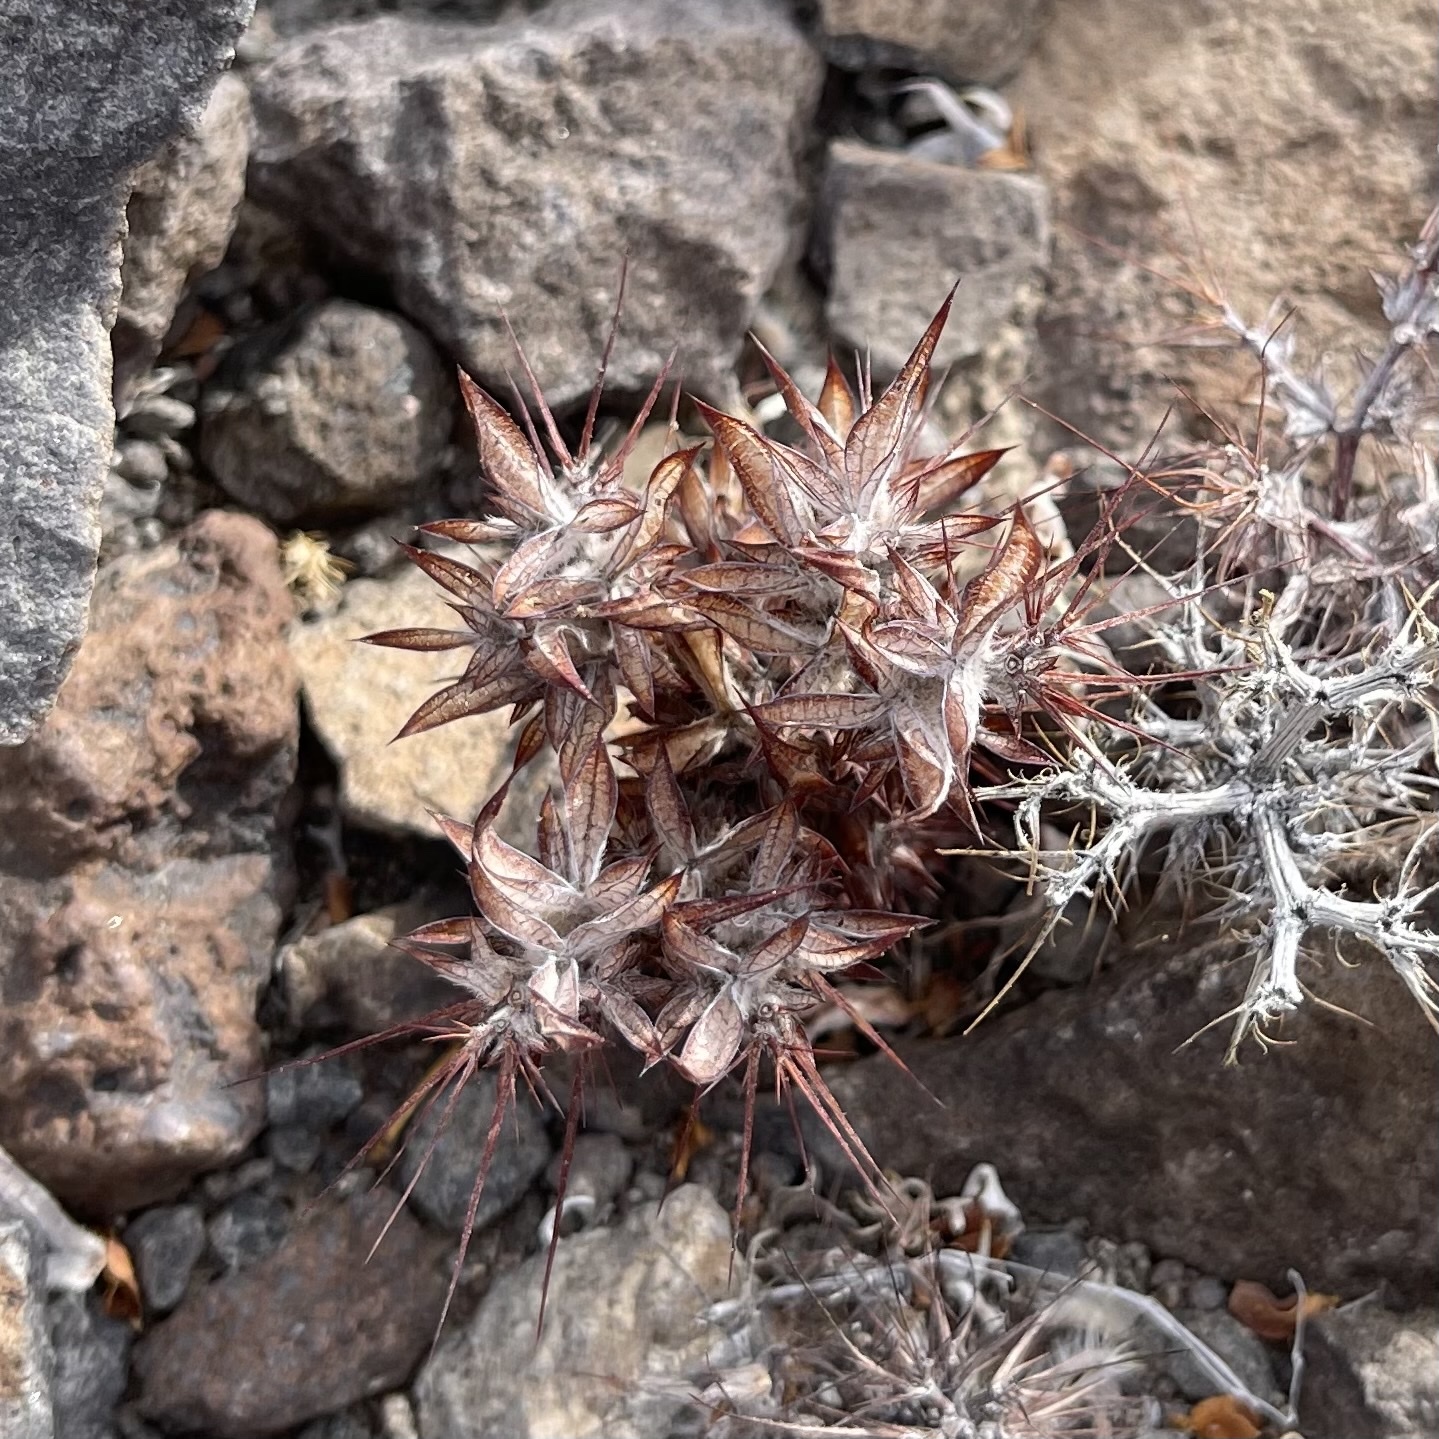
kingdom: Plantae
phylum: Tracheophyta
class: Magnoliopsida
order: Caryophyllales
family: Polygonaceae
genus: Chorizanthe
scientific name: Chorizanthe rigida
